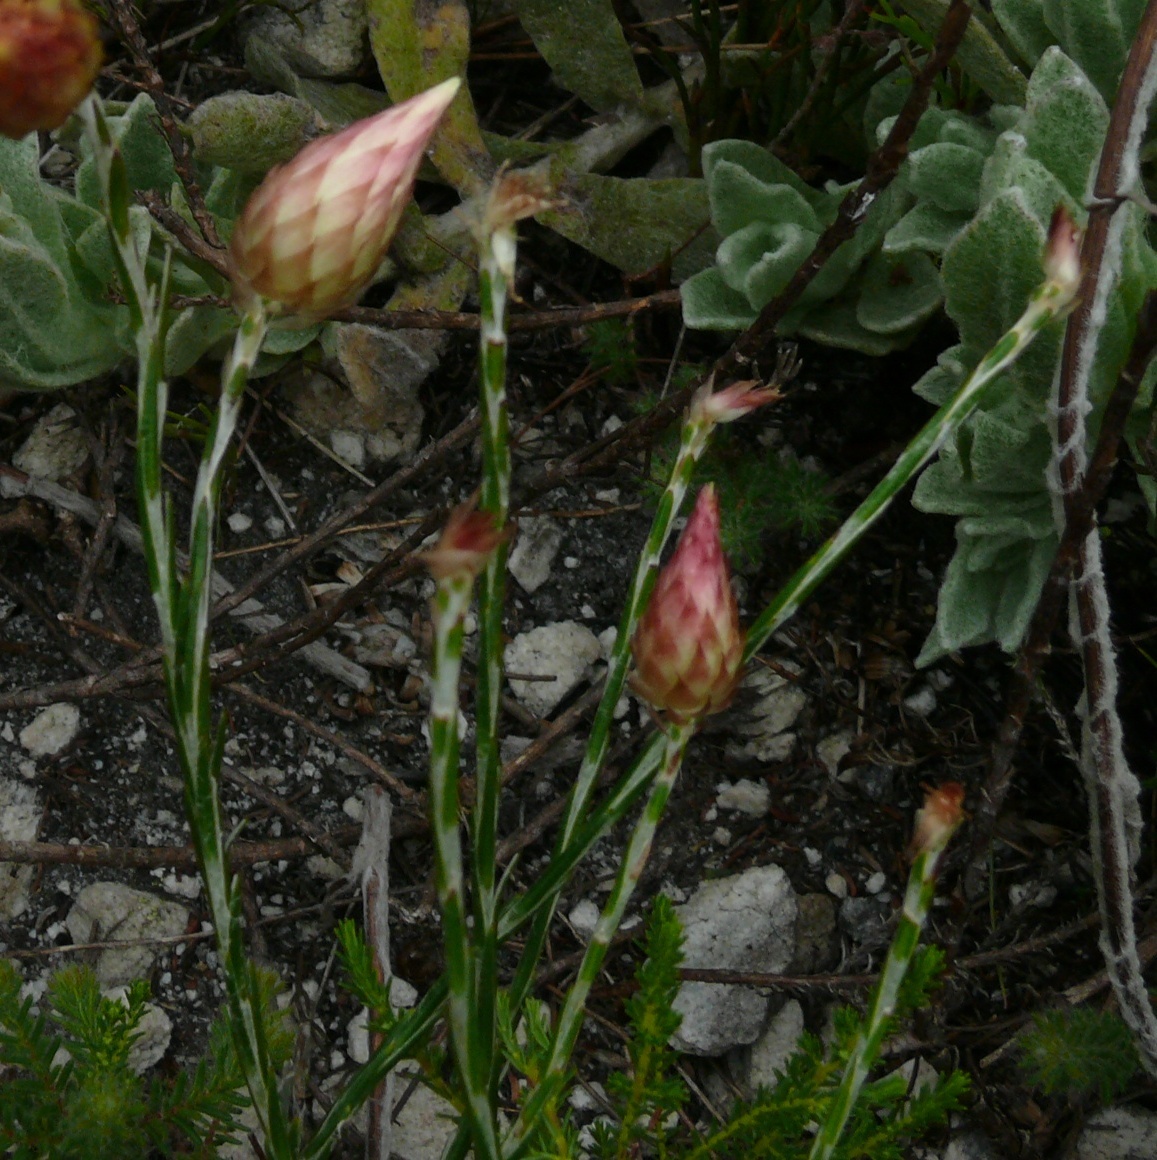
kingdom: Plantae
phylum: Tracheophyta
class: Magnoliopsida
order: Asterales
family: Asteraceae
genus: Edmondia
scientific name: Edmondia sesamoides
